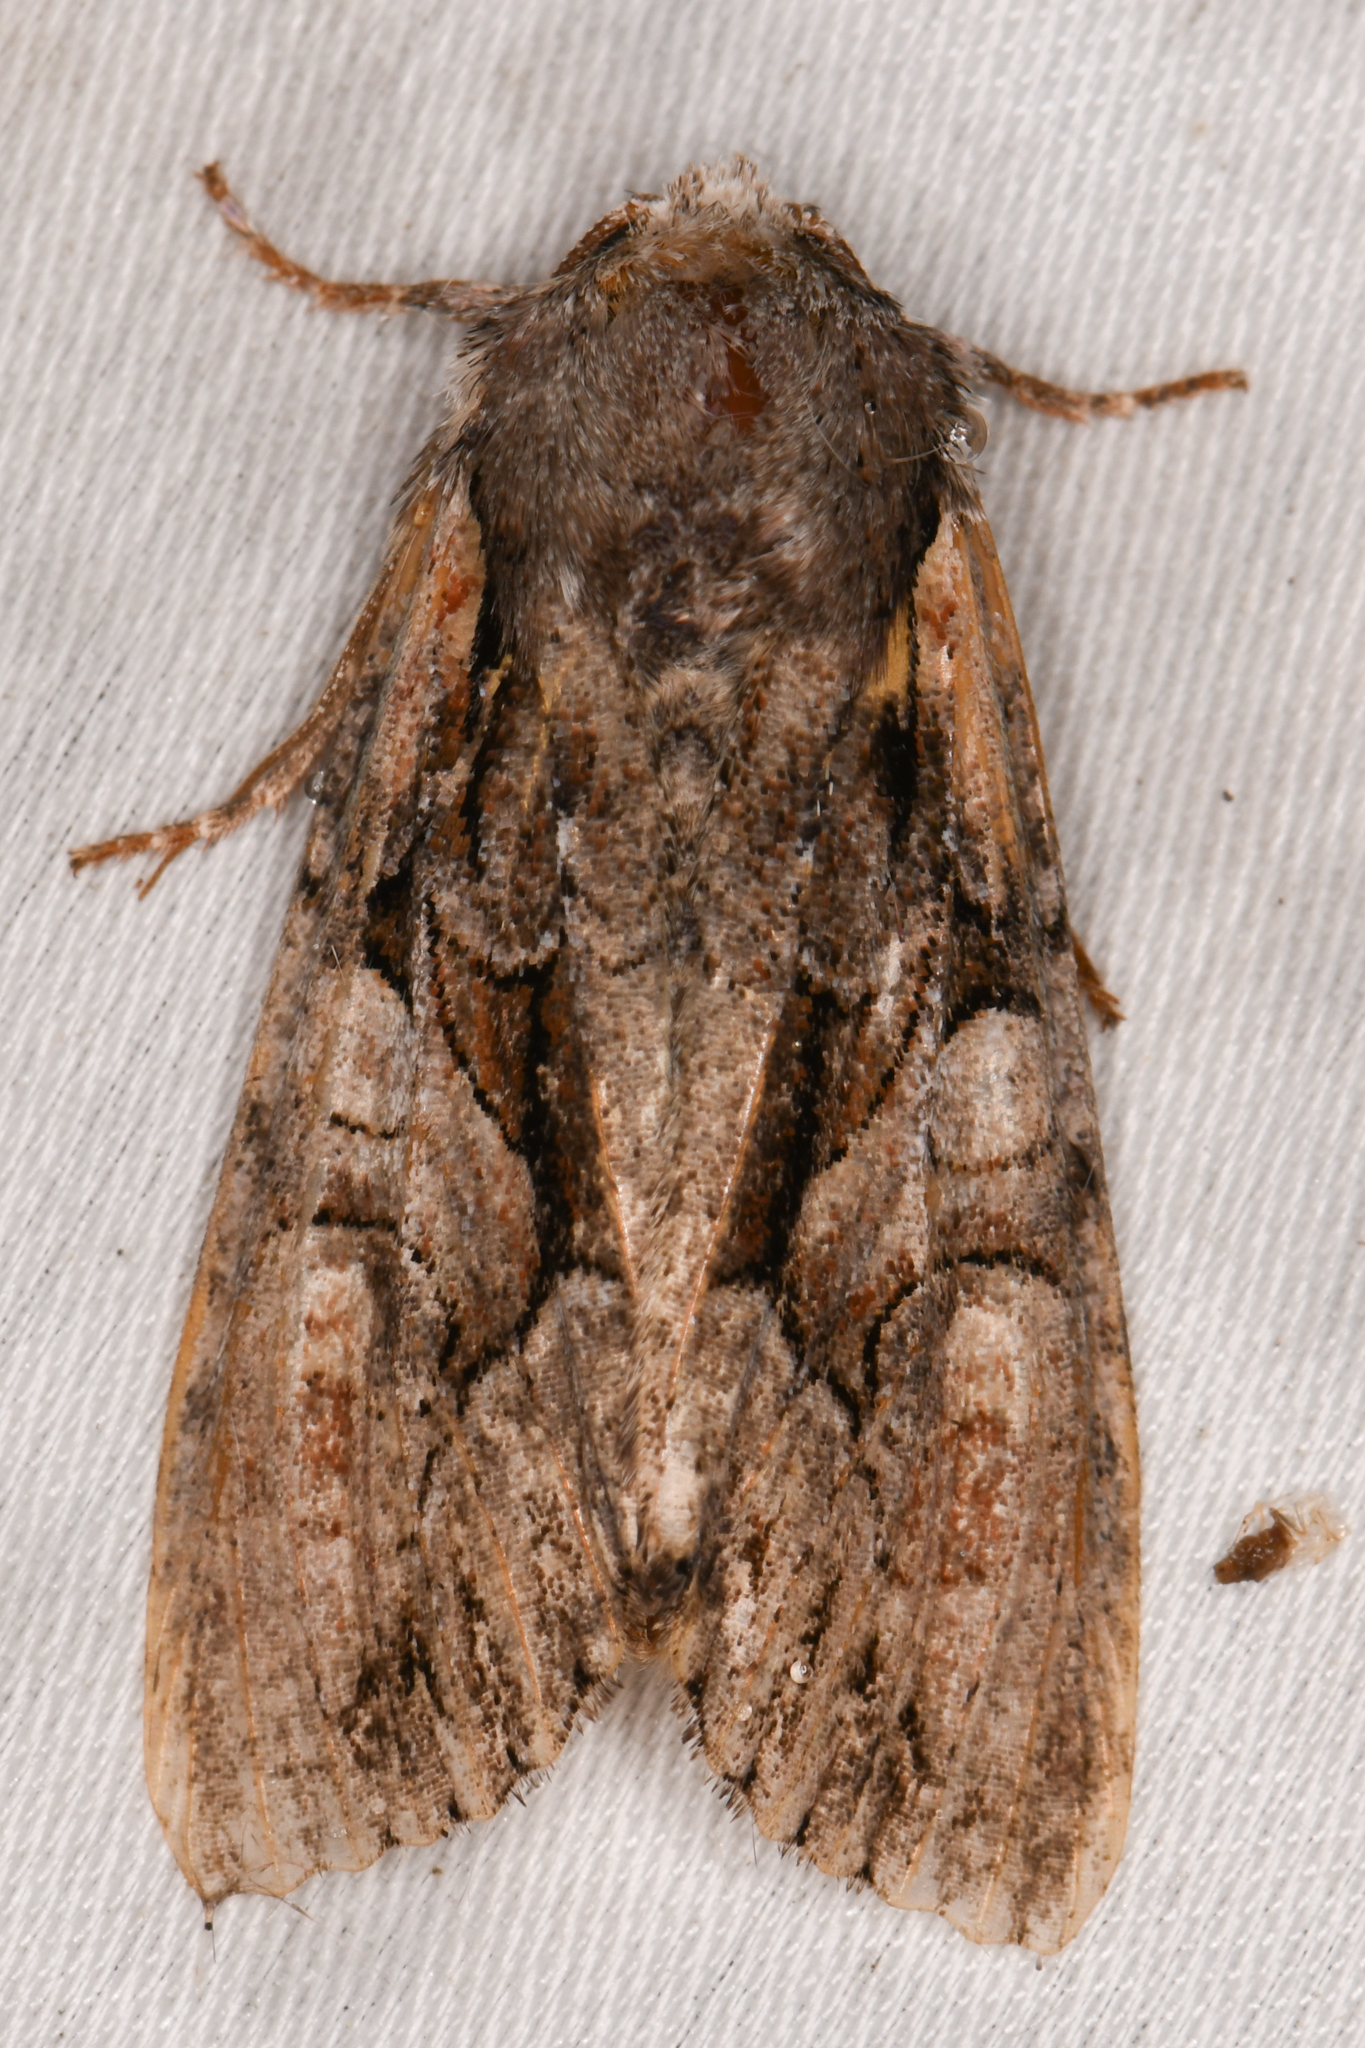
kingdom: Animalia
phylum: Arthropoda
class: Insecta
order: Lepidoptera
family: Noctuidae
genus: Lacanobia
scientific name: Lacanobia subjuncta
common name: Speckled cutworm moth
